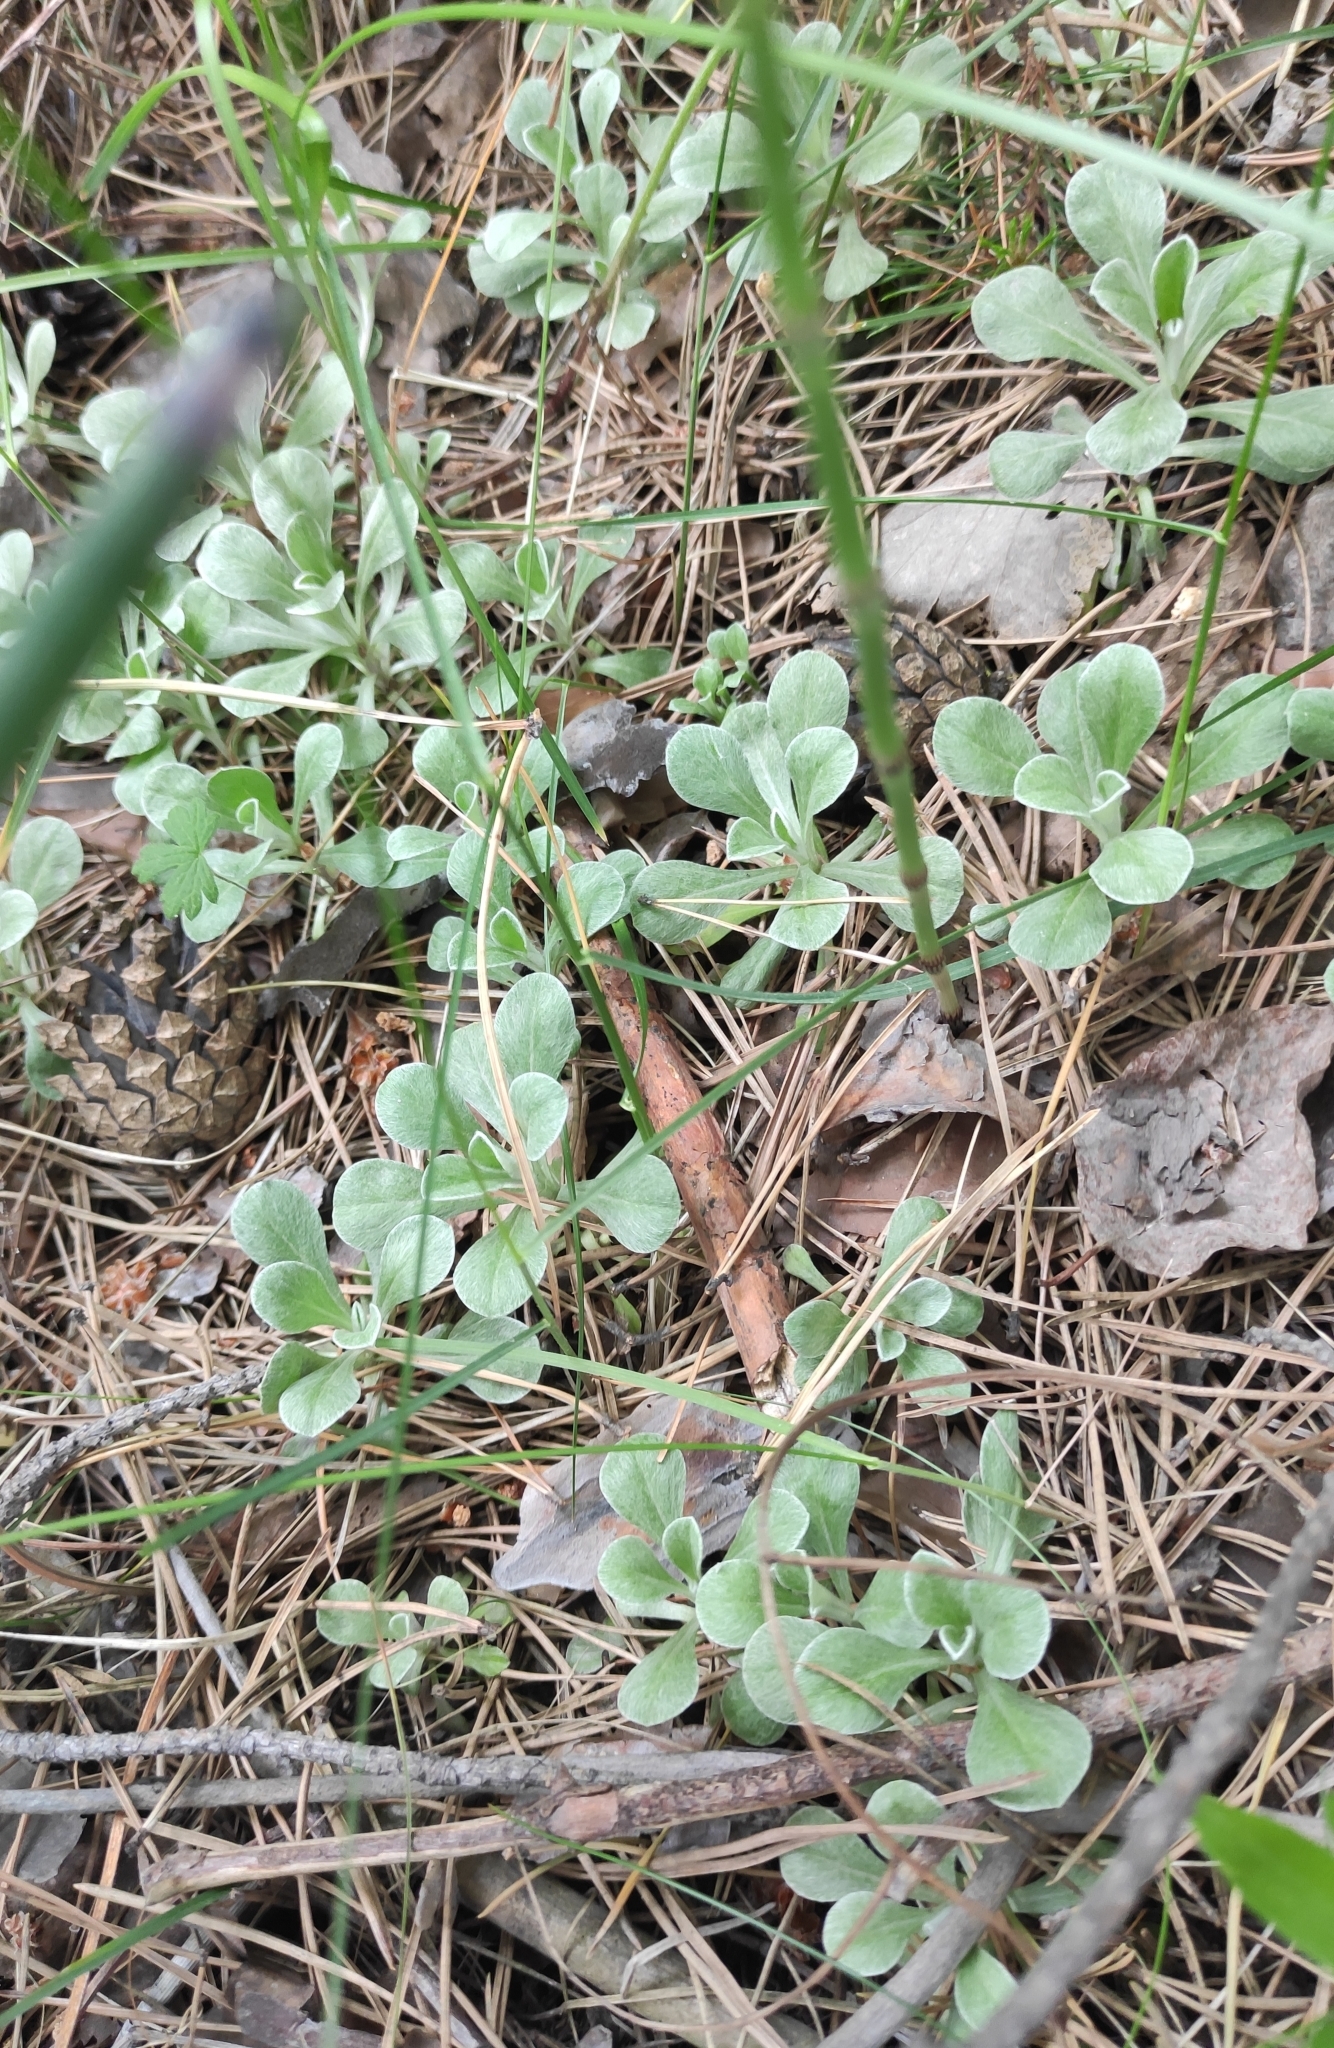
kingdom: Plantae
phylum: Tracheophyta
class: Magnoliopsida
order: Asterales
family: Asteraceae
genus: Antennaria
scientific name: Antennaria dioica
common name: Mountain everlasting
